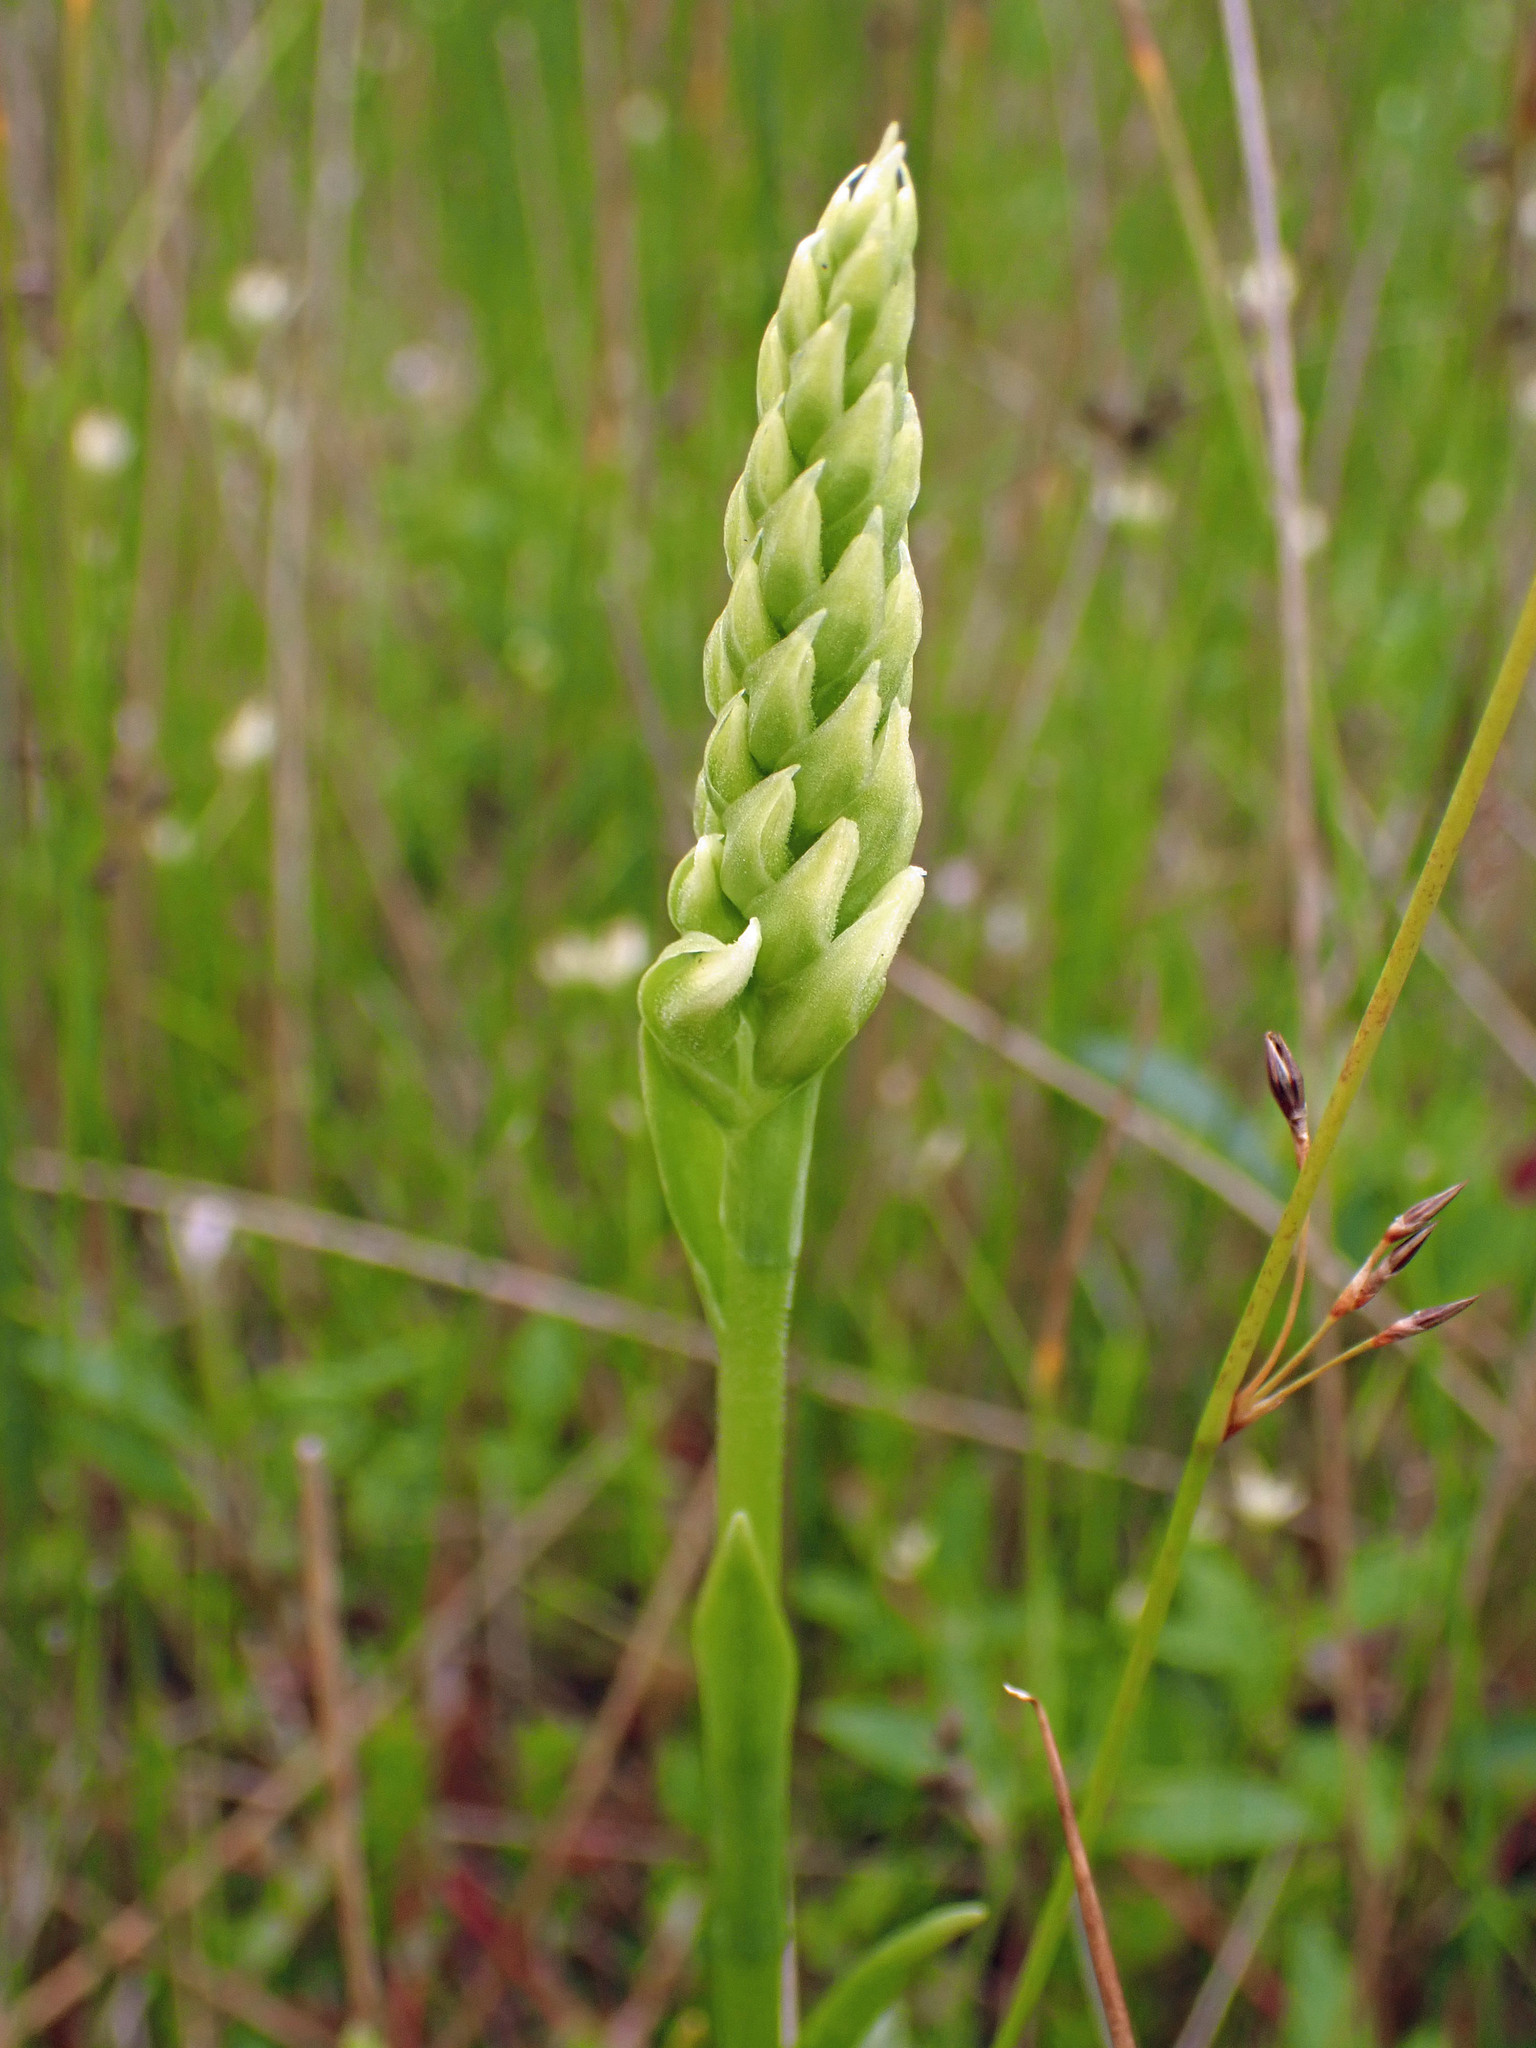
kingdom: Plantae
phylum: Tracheophyta
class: Liliopsida
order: Asparagales
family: Orchidaceae
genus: Spiranthes
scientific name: Spiranthes romanzoffiana
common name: Irish lady's-tresses
